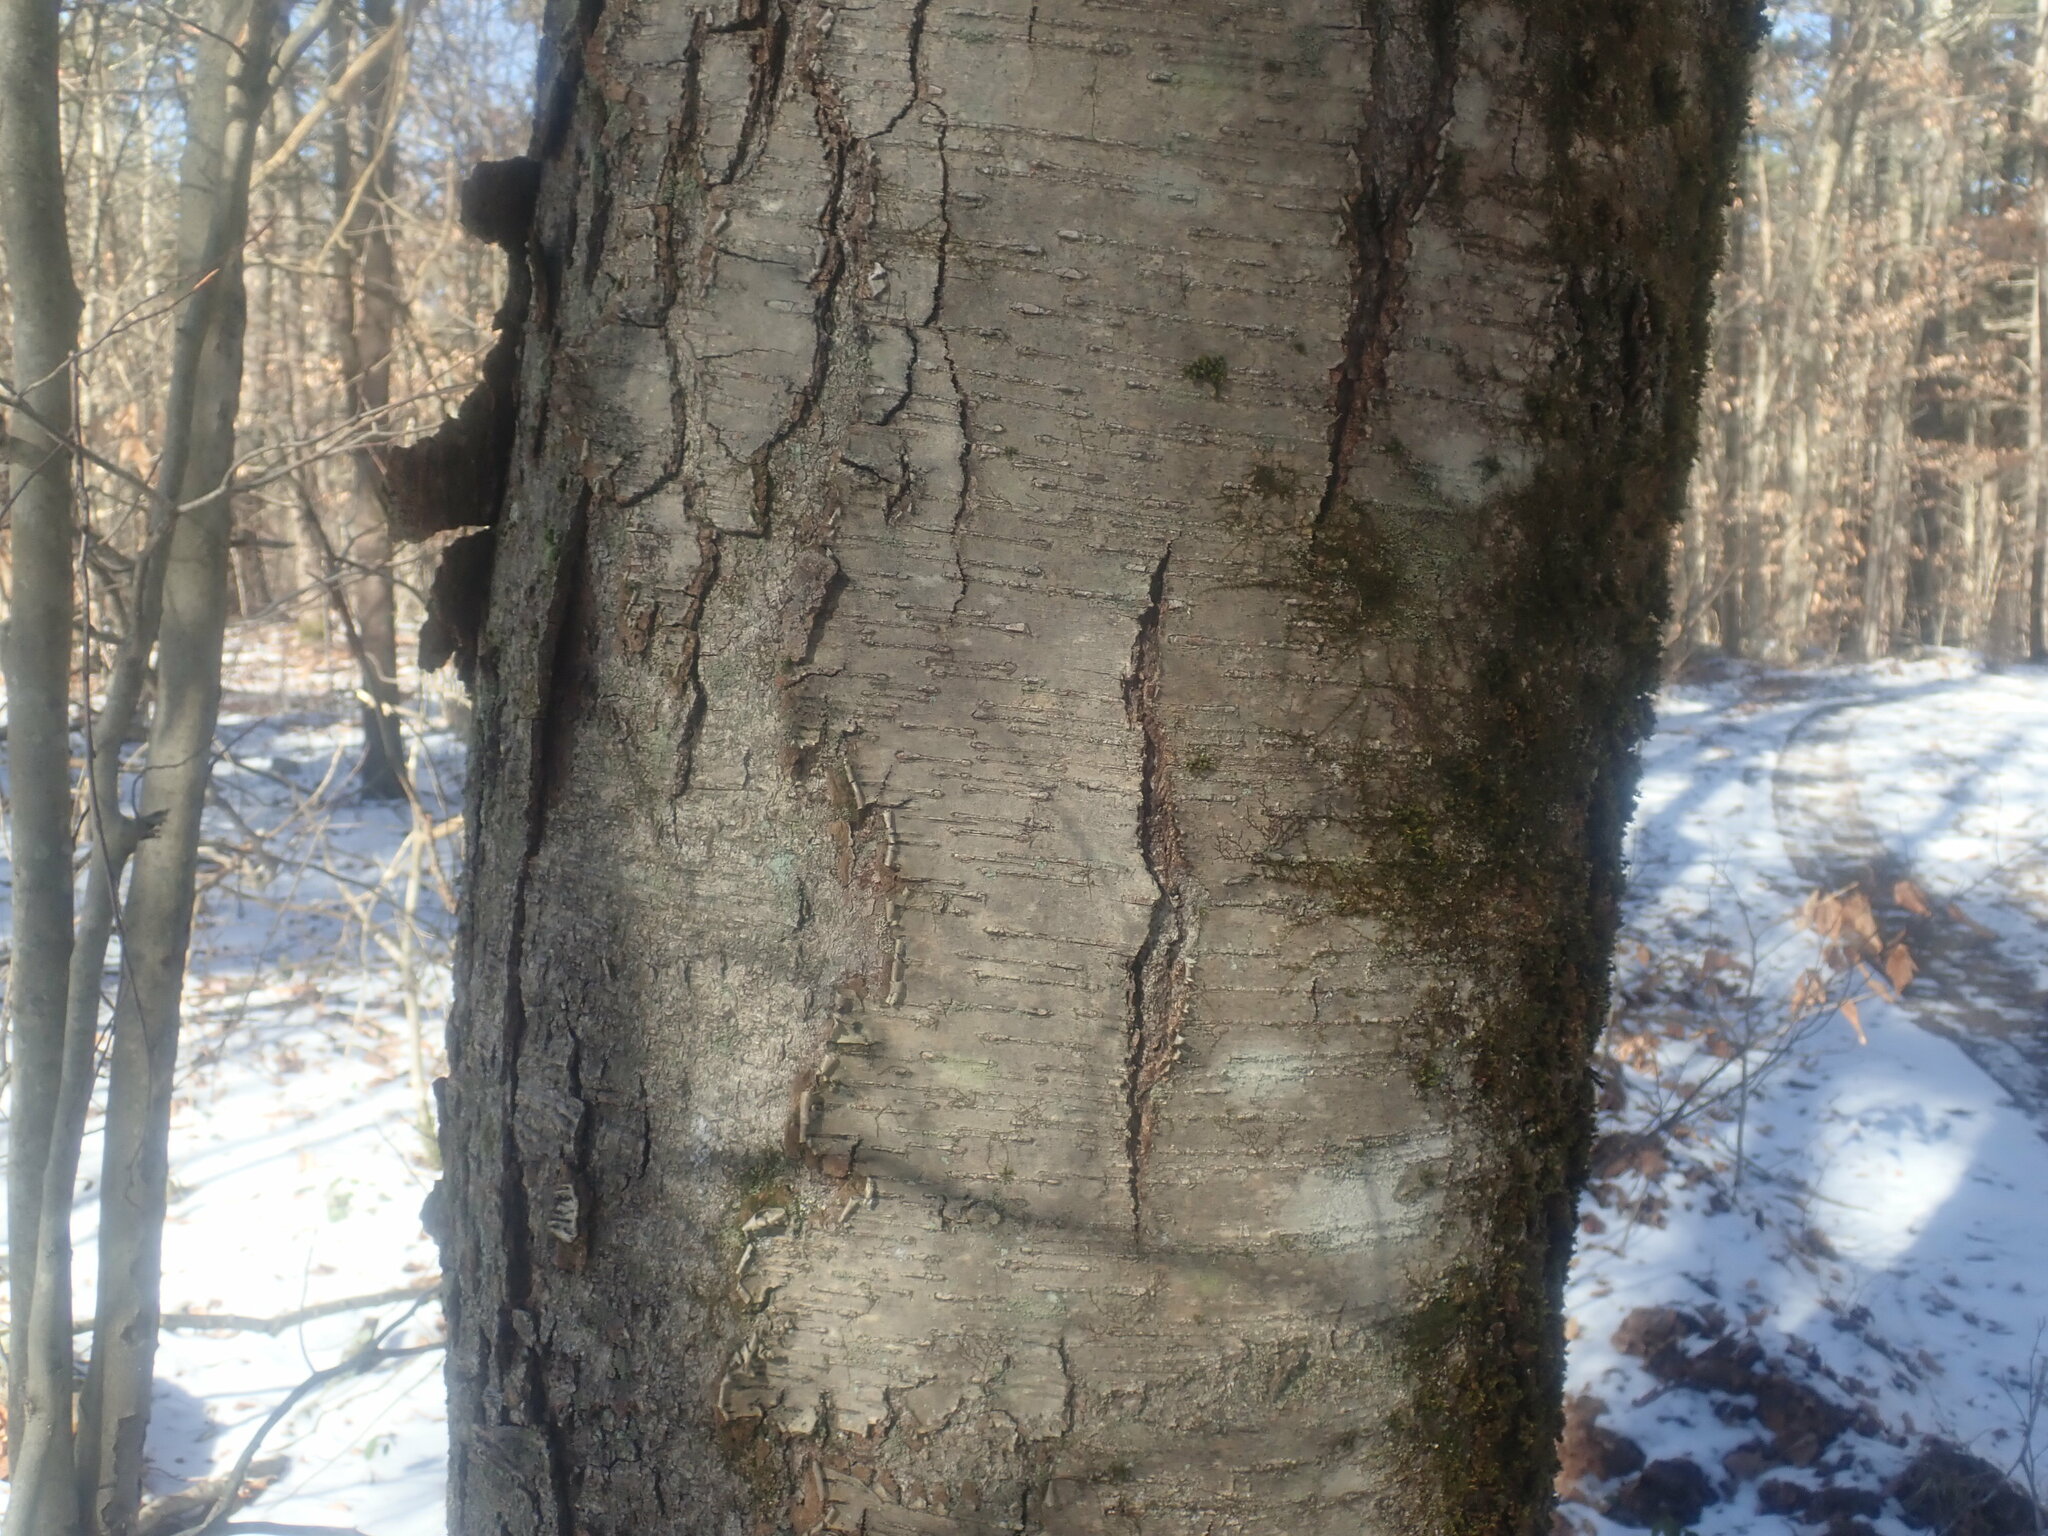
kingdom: Plantae
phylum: Tracheophyta
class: Magnoliopsida
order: Fagales
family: Betulaceae
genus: Betula
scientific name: Betula lenta
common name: Black birch
